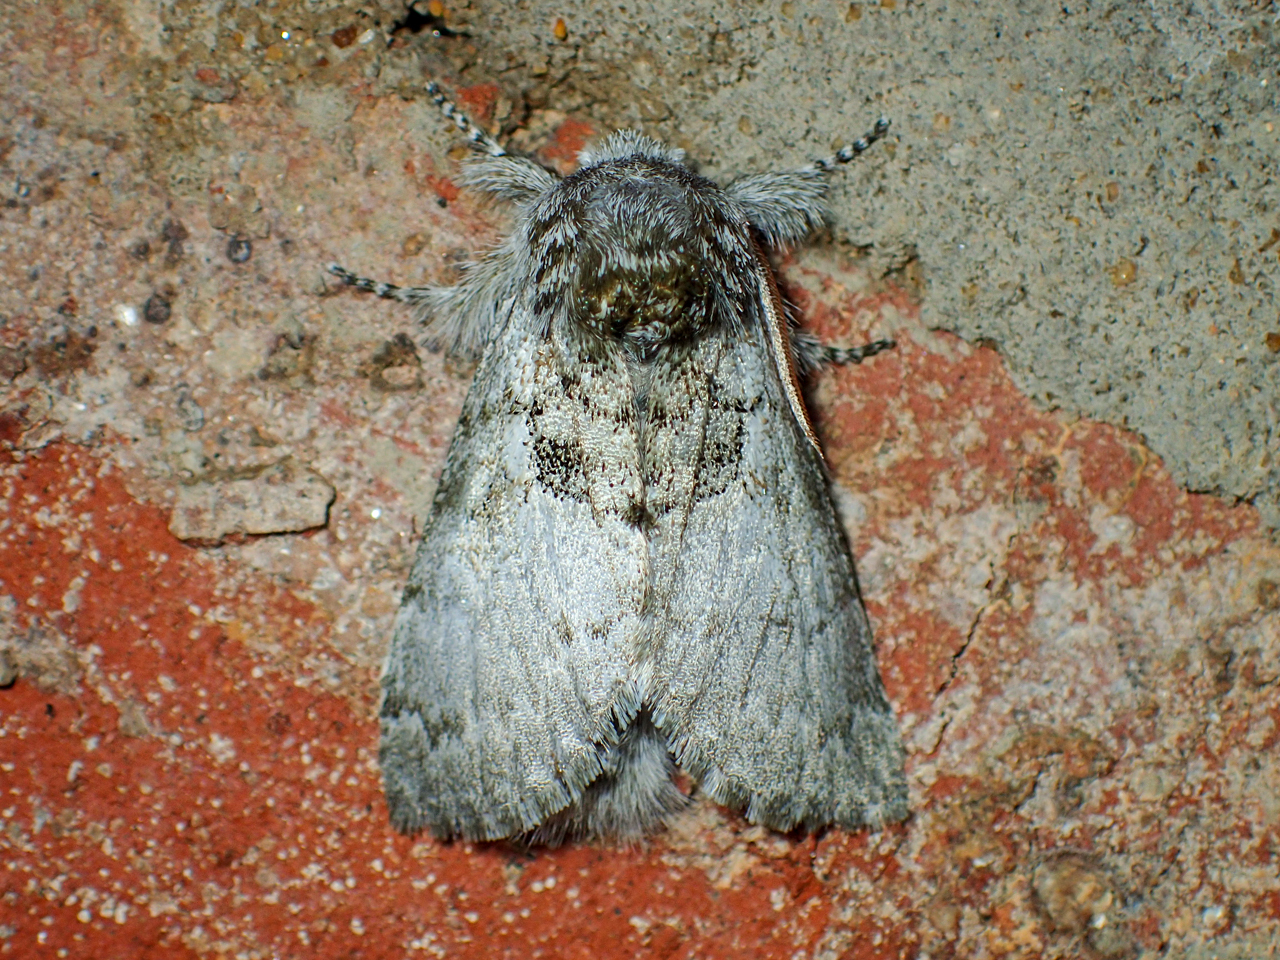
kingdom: Animalia
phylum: Arthropoda
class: Insecta
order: Lepidoptera
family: Noctuidae
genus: Colocasia
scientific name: Colocasia flavicornis
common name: Saddled yellowhorn
